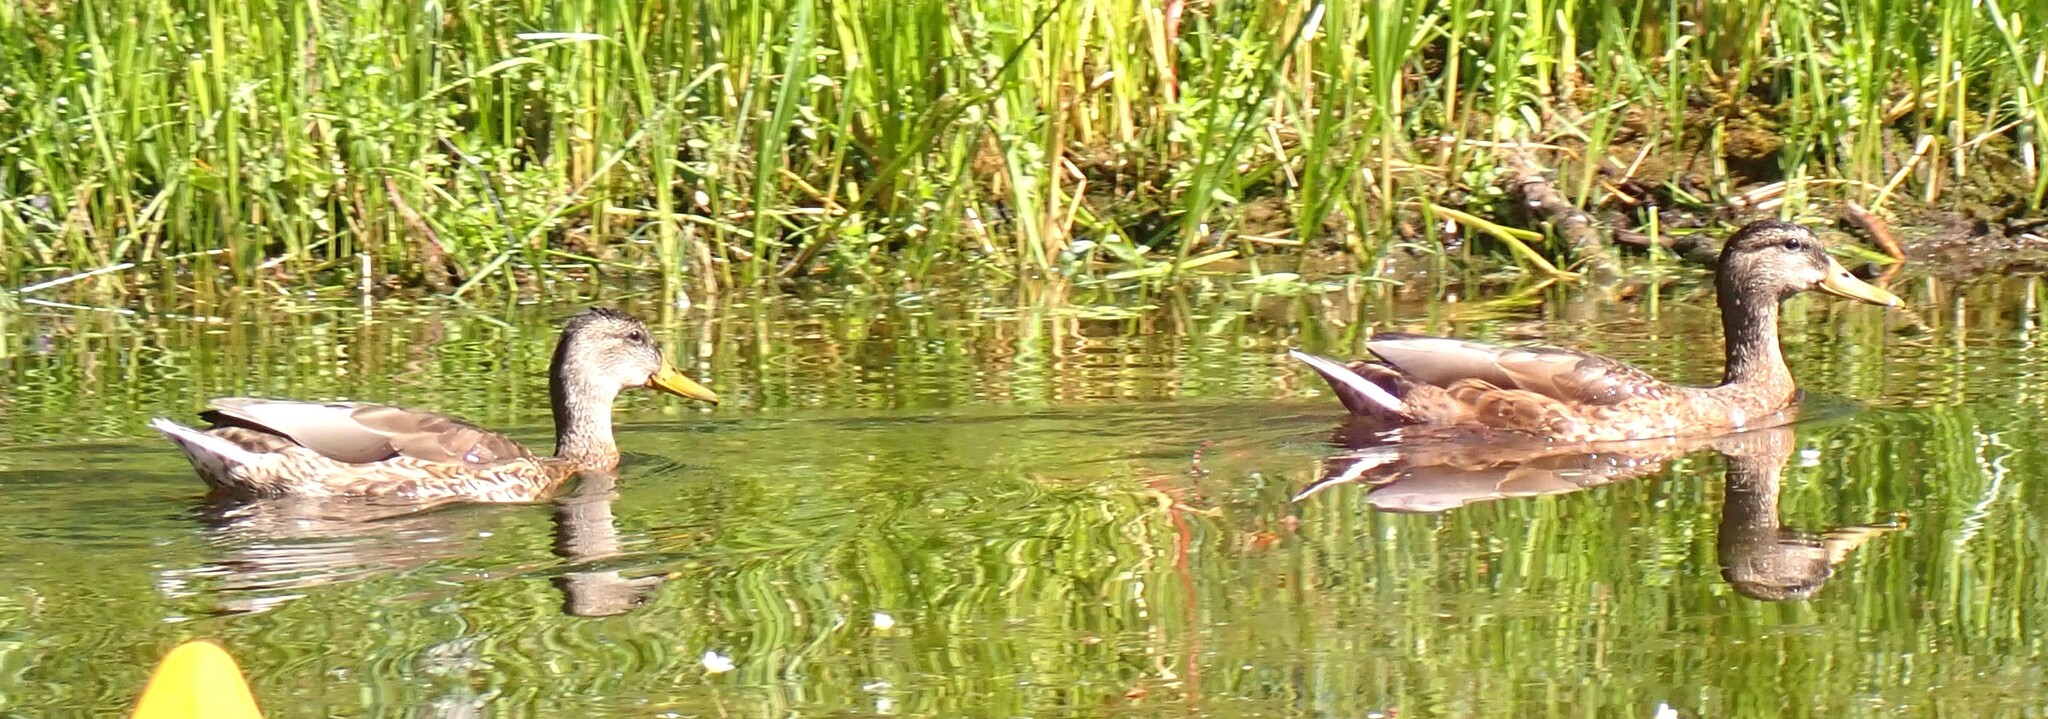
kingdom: Animalia
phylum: Chordata
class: Aves
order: Anseriformes
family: Anatidae
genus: Anas
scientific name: Anas platyrhynchos
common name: Mallard
